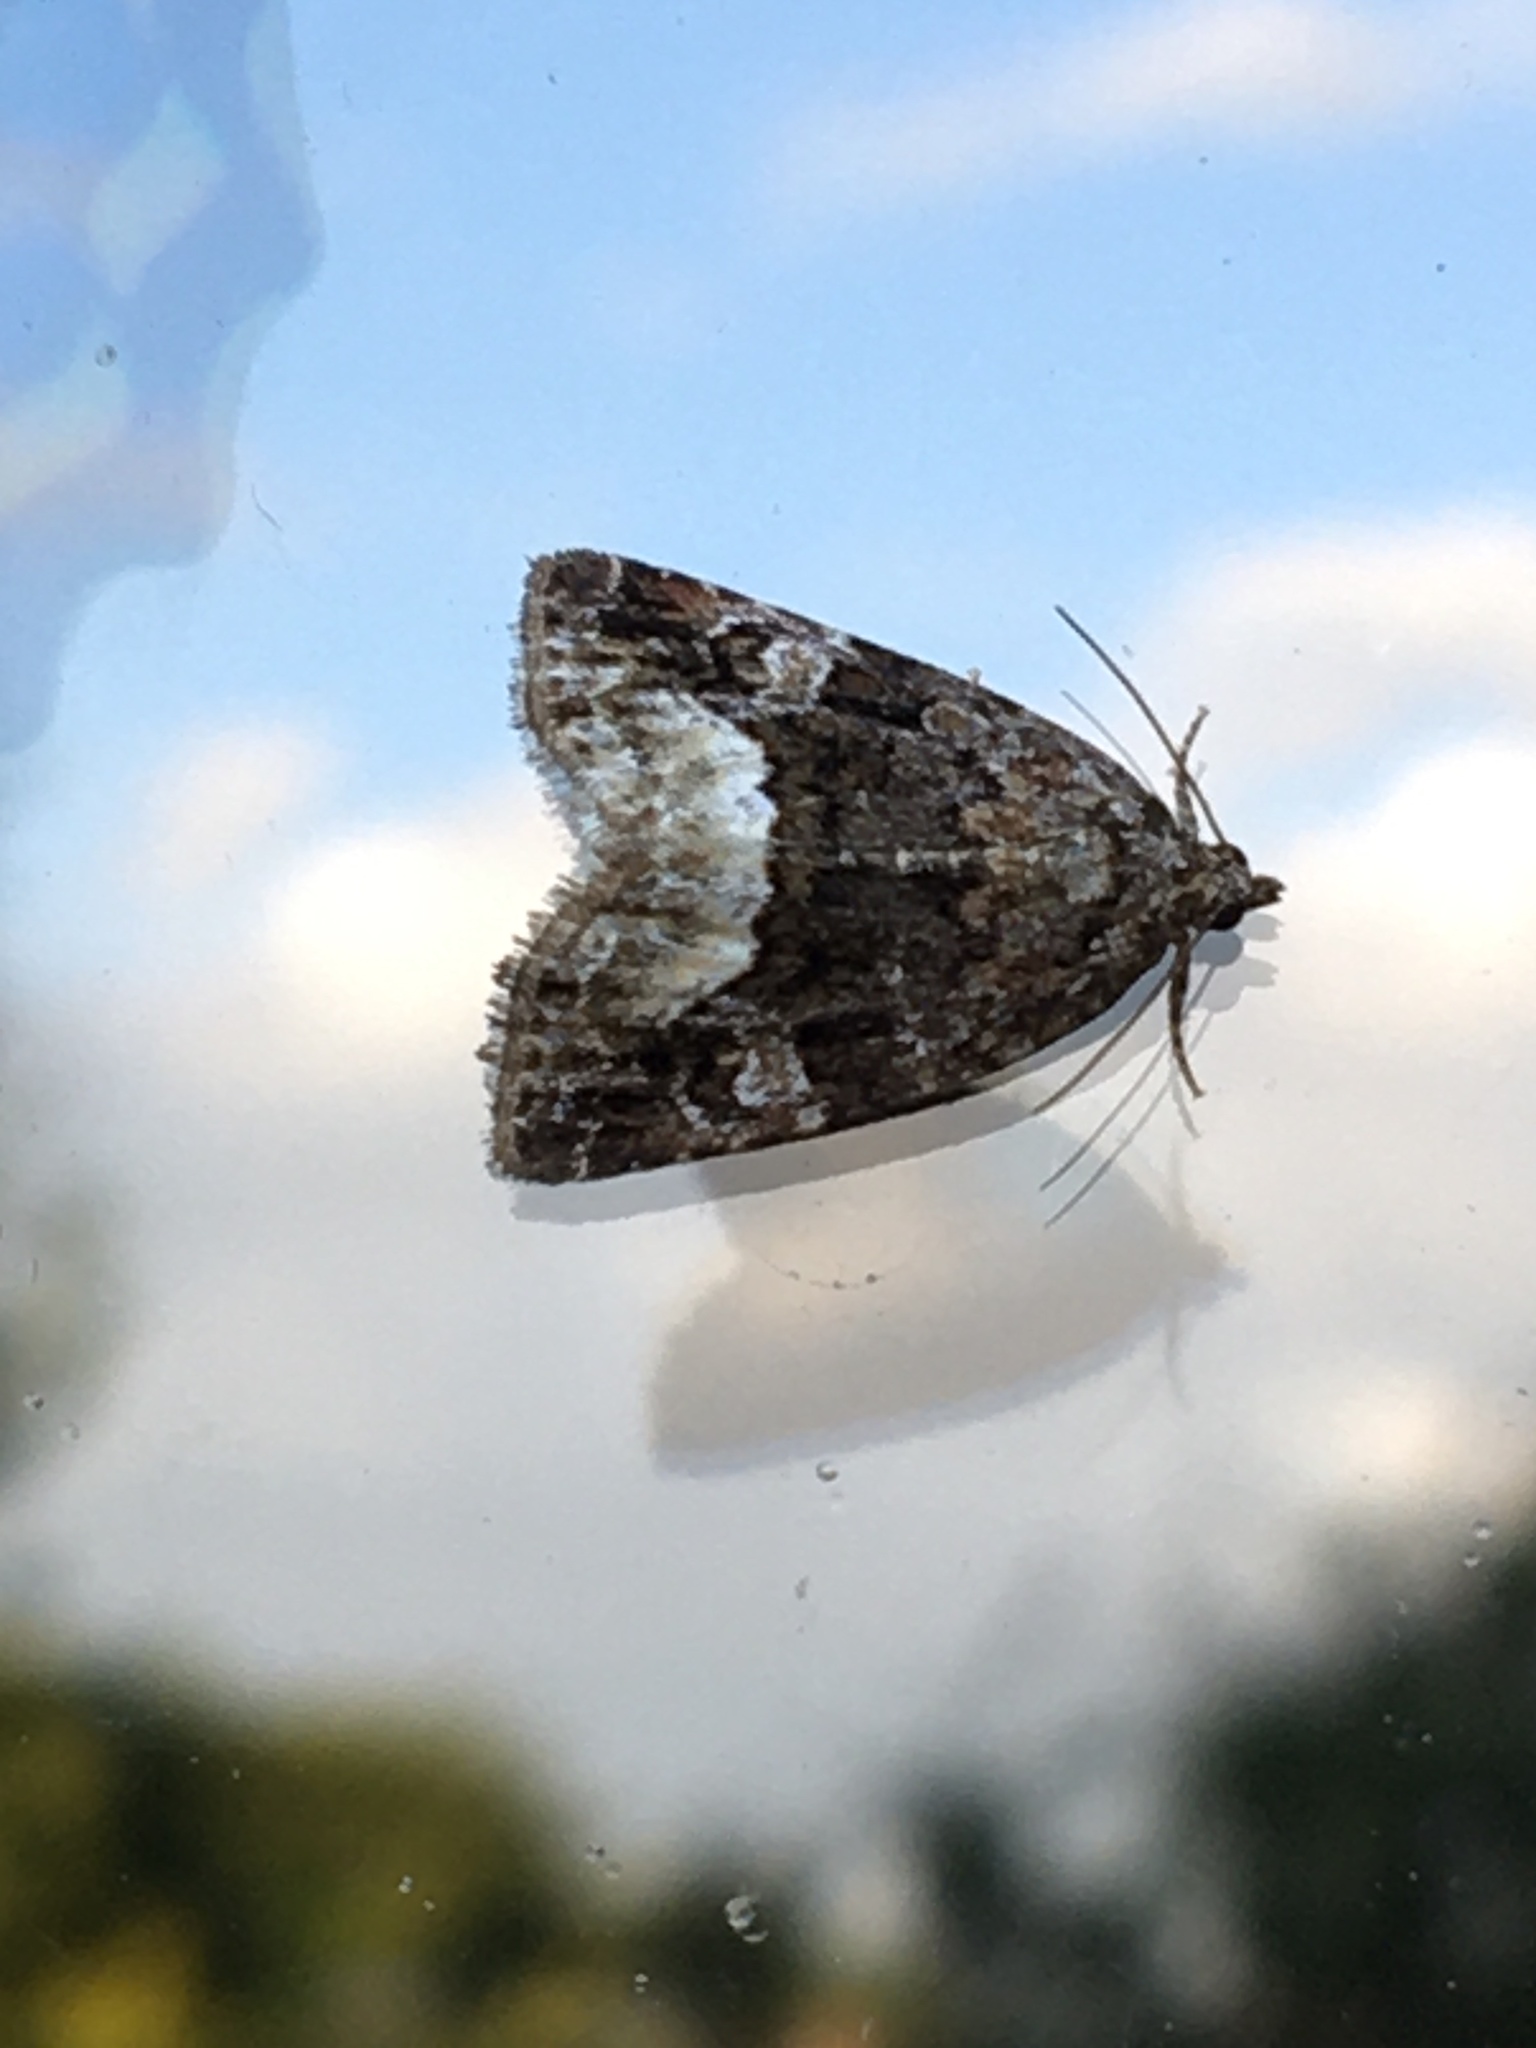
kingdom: Animalia
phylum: Arthropoda
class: Insecta
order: Lepidoptera
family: Noctuidae
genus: Deltote
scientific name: Deltote pygarga
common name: Marbled white spot
